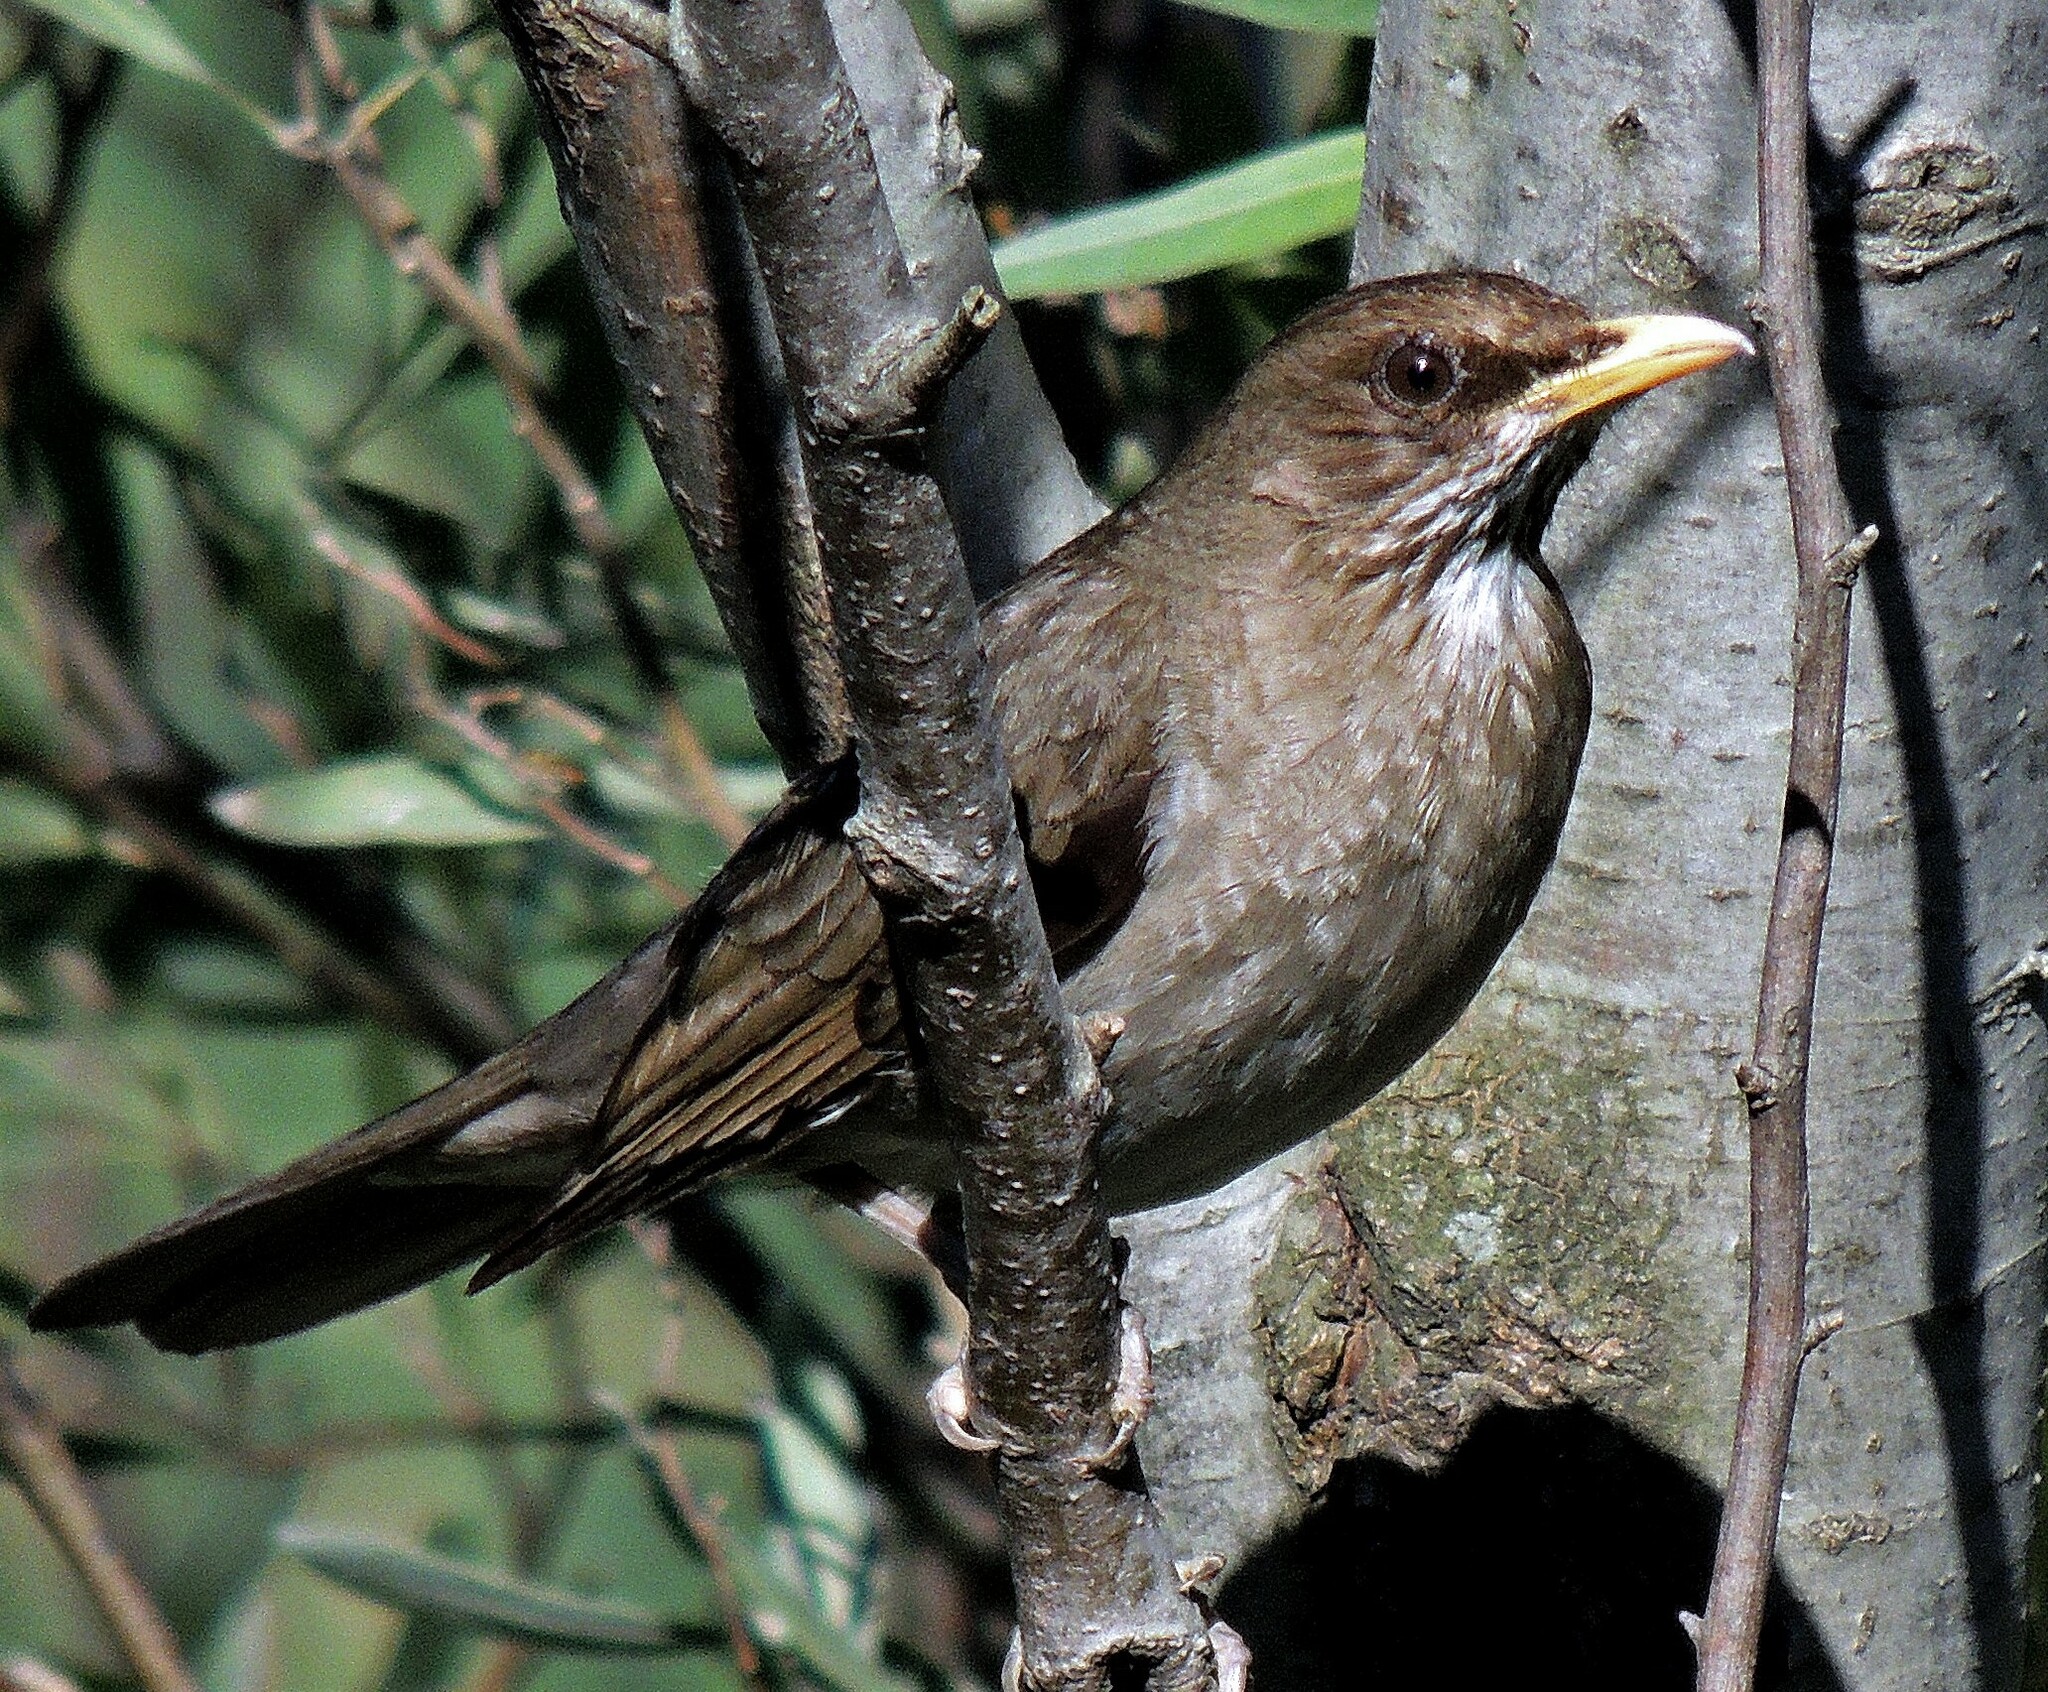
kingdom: Animalia
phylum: Chordata
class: Aves
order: Passeriformes
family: Turdidae
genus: Turdus
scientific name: Turdus amaurochalinus
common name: Creamy-bellied thrush
